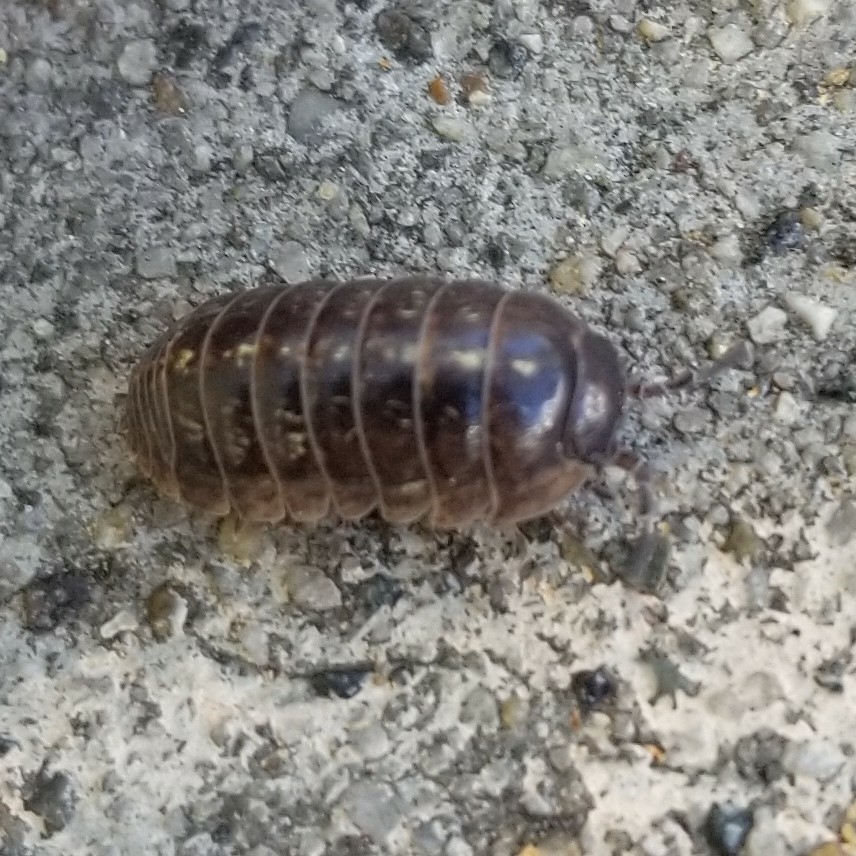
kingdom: Animalia
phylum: Arthropoda
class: Malacostraca
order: Isopoda
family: Armadillidiidae
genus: Armadillidium
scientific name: Armadillidium vulgare
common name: Common pill woodlouse
